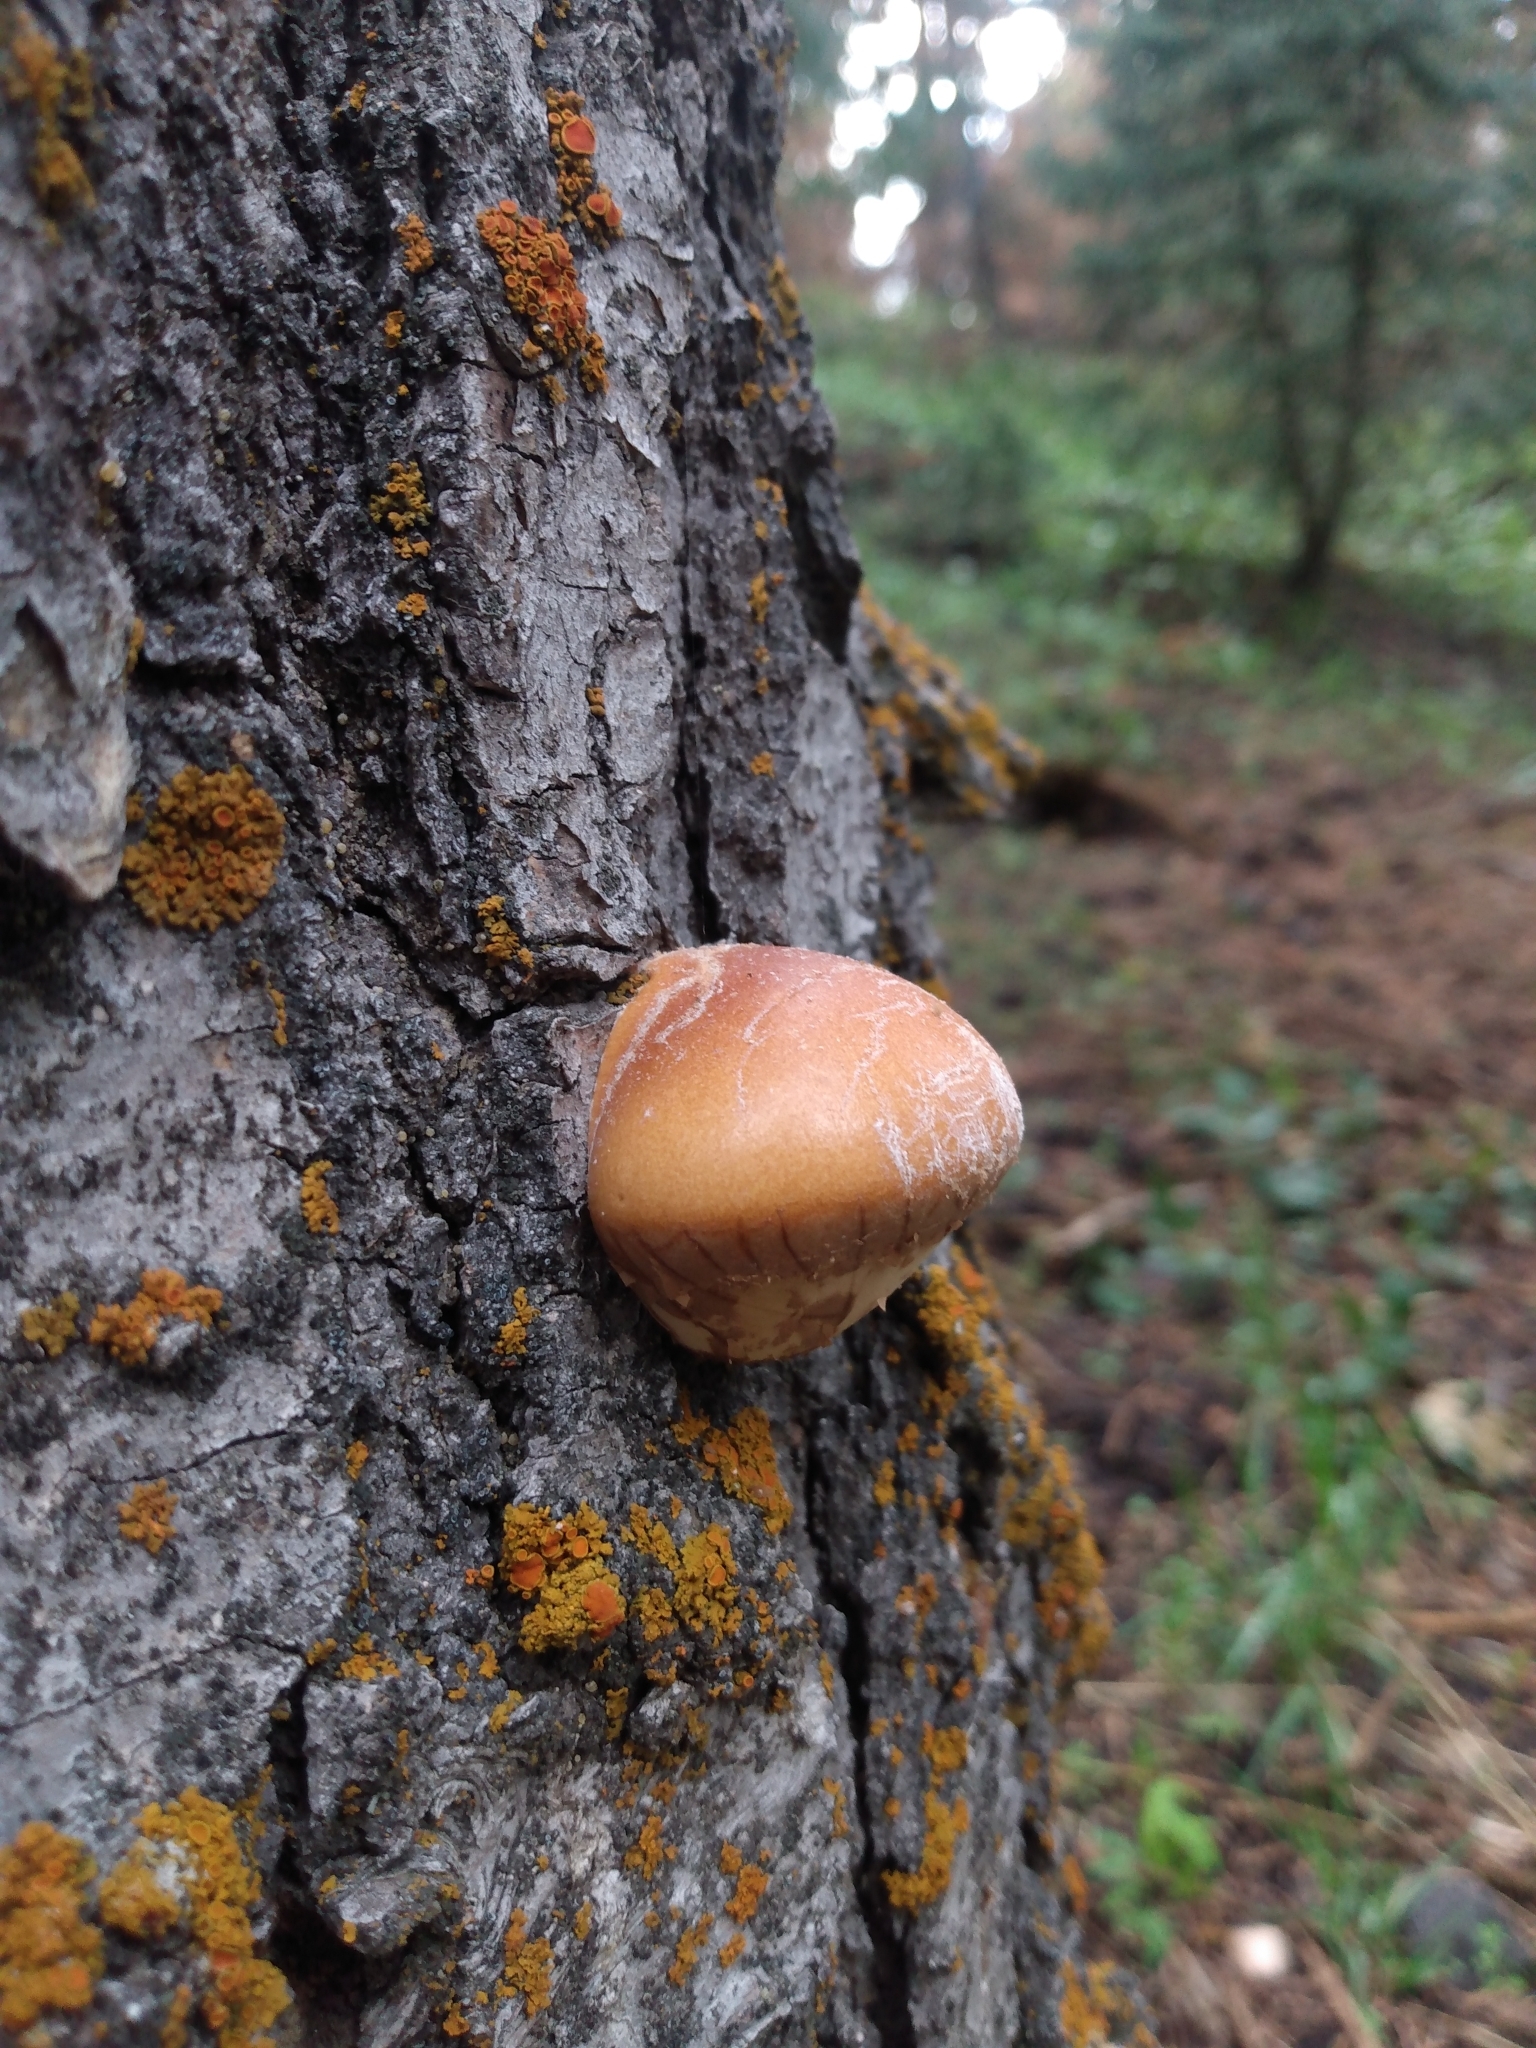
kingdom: Fungi
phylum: Basidiomycota
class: Agaricomycetes
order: Polyporales
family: Polyporaceae
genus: Cryptoporus
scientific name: Cryptoporus volvatus
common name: Veiled polypore
